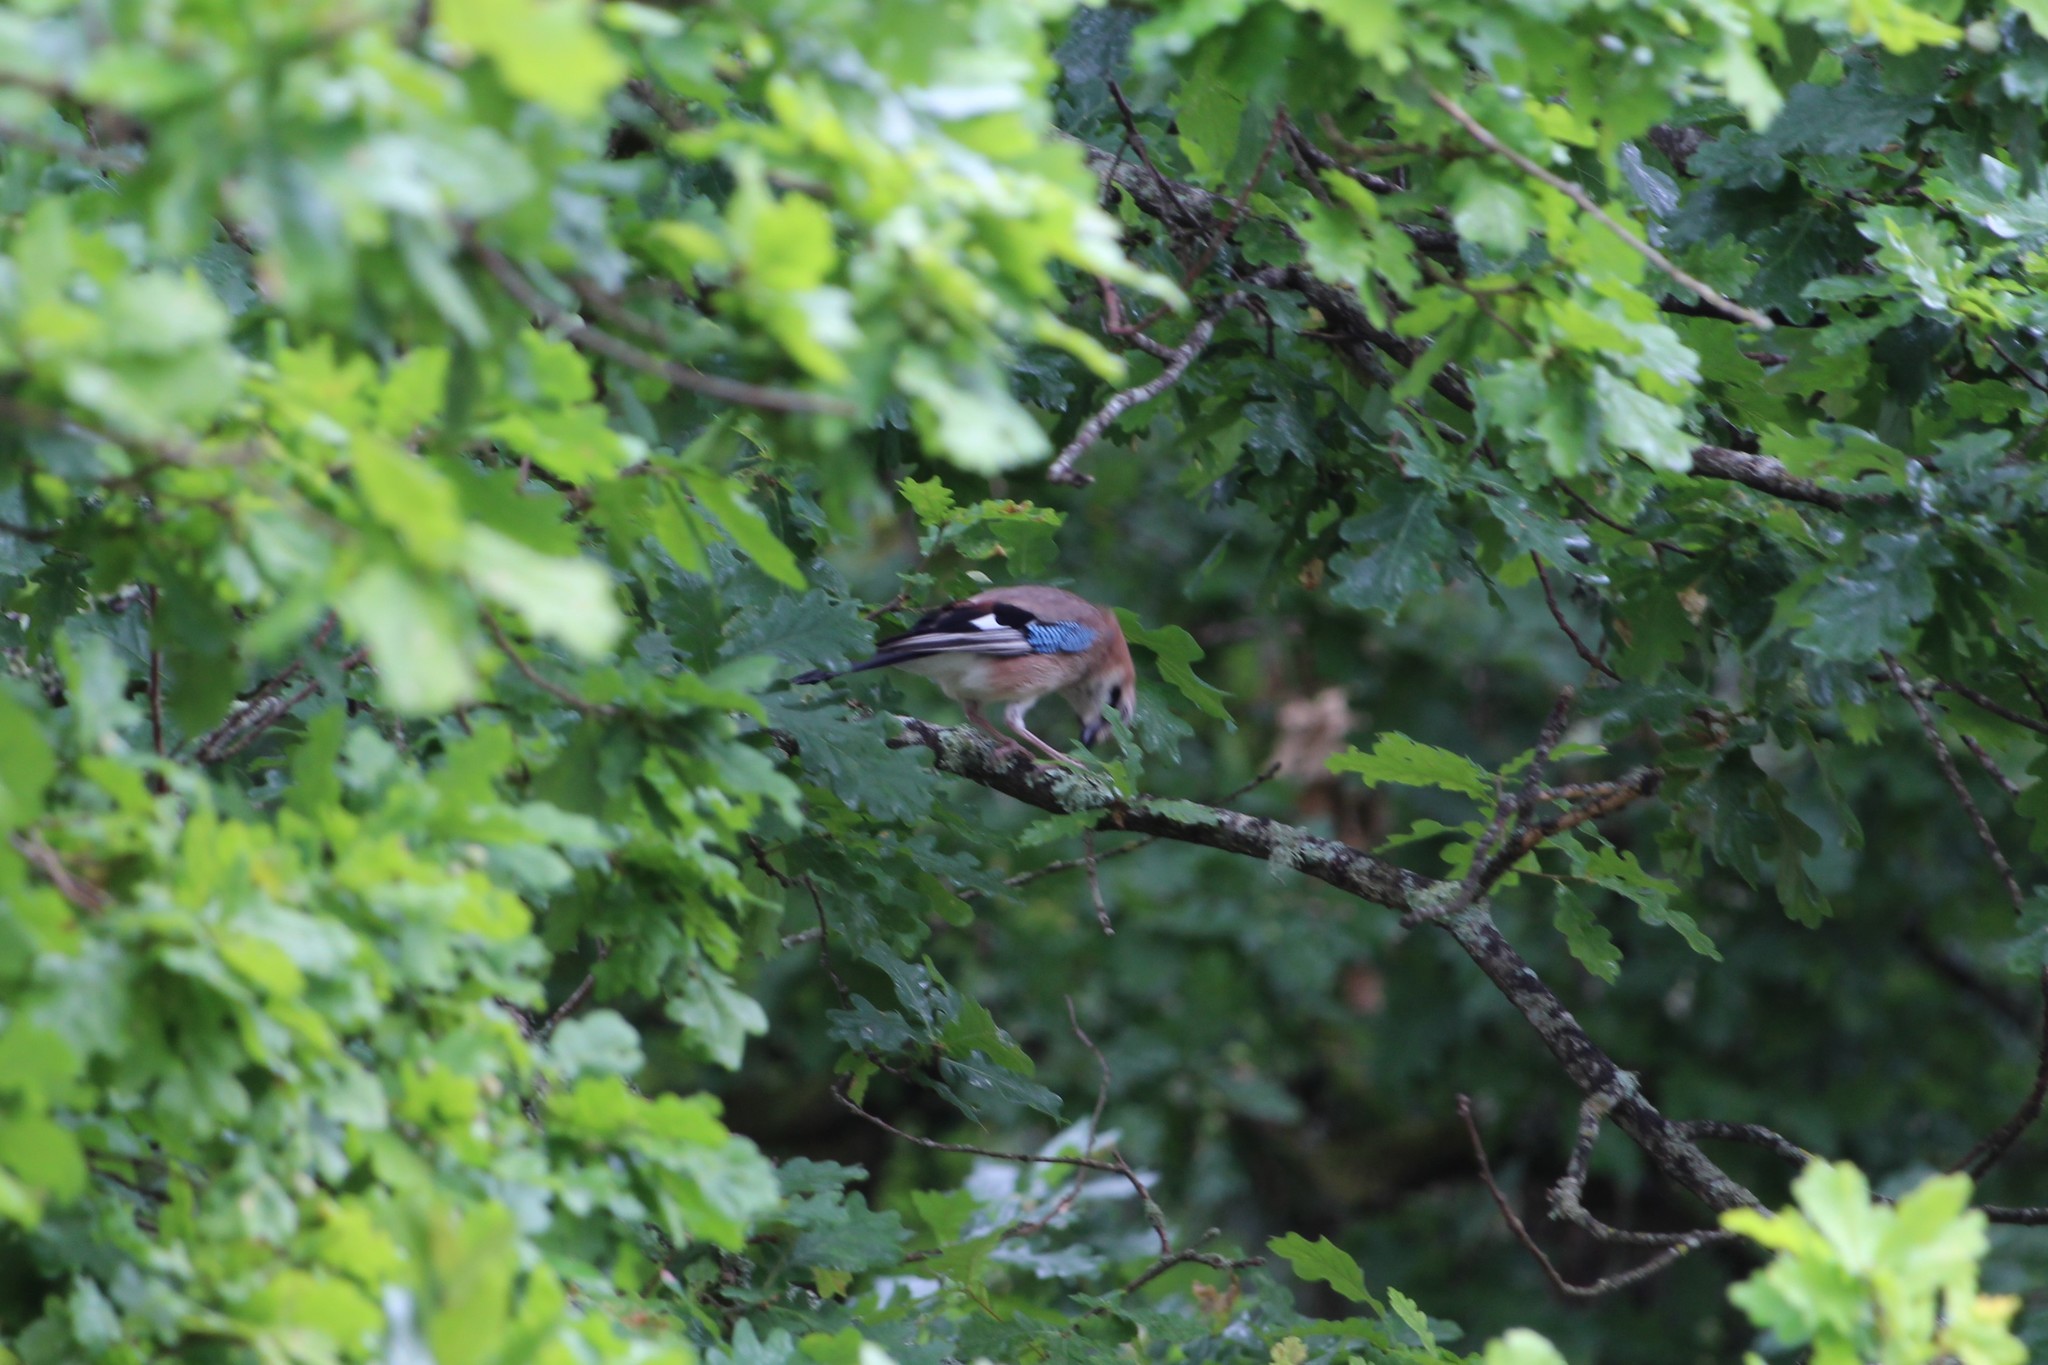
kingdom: Animalia
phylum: Chordata
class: Aves
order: Passeriformes
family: Corvidae
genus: Garrulus
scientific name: Garrulus glandarius
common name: Eurasian jay
